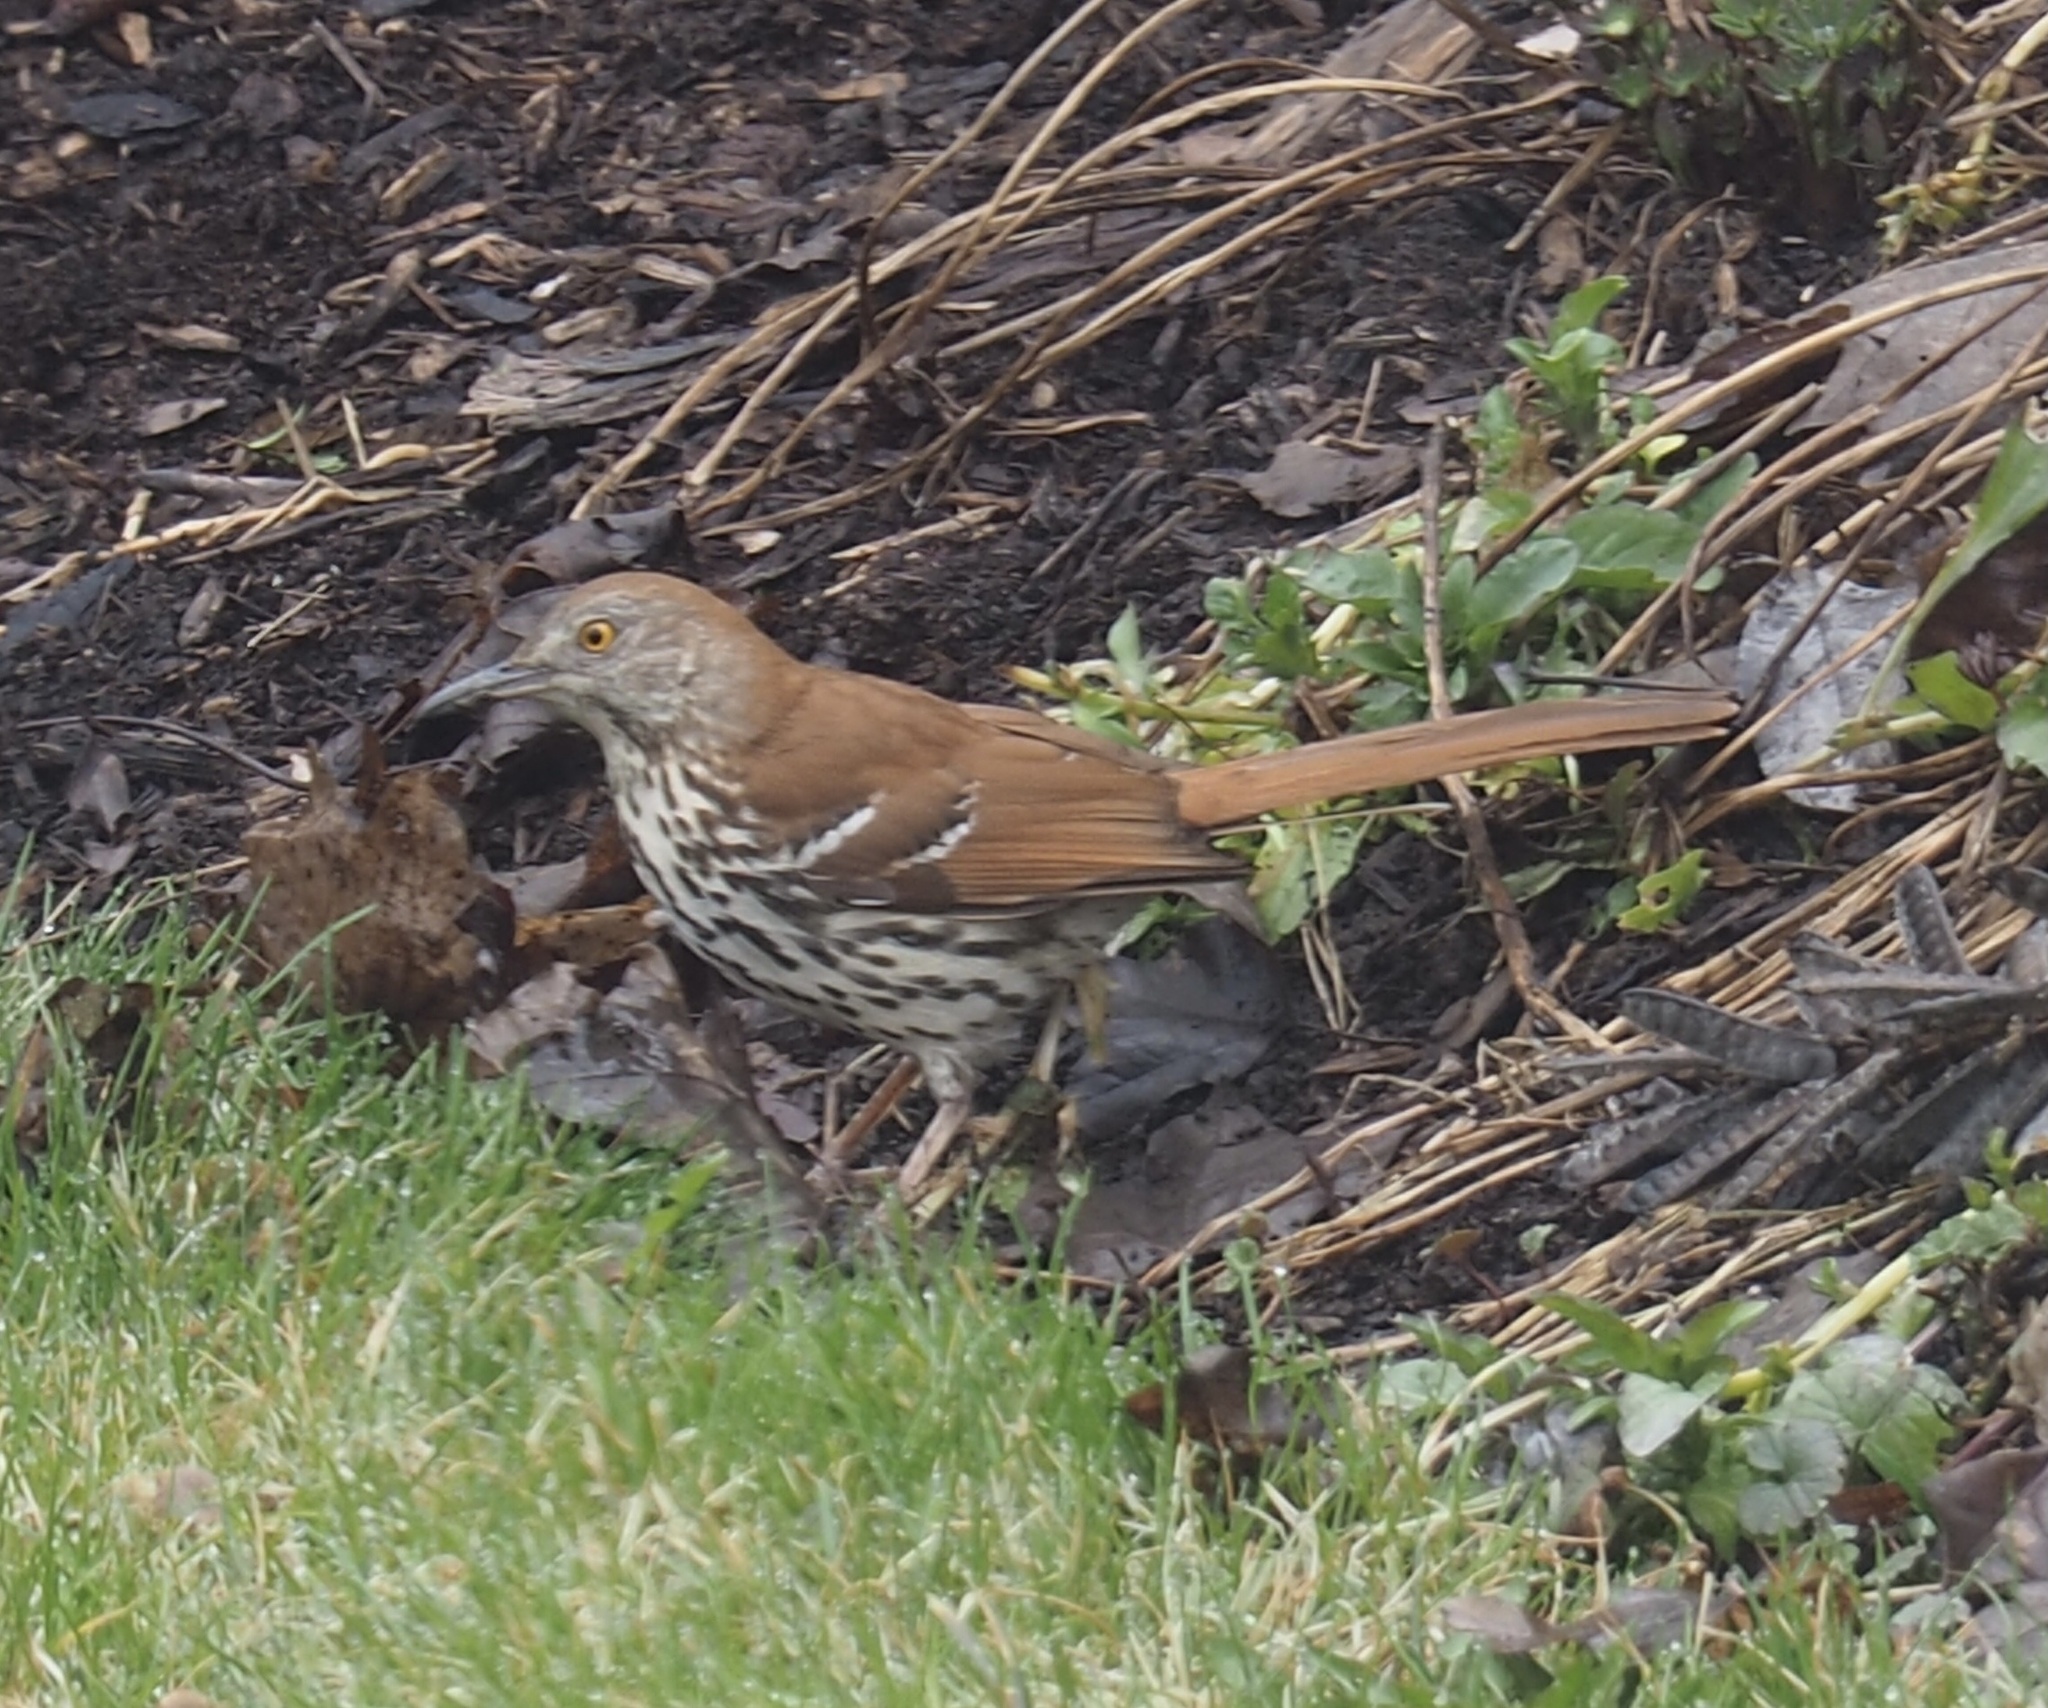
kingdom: Animalia
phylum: Chordata
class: Aves
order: Passeriformes
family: Mimidae
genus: Toxostoma
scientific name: Toxostoma rufum
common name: Brown thrasher
